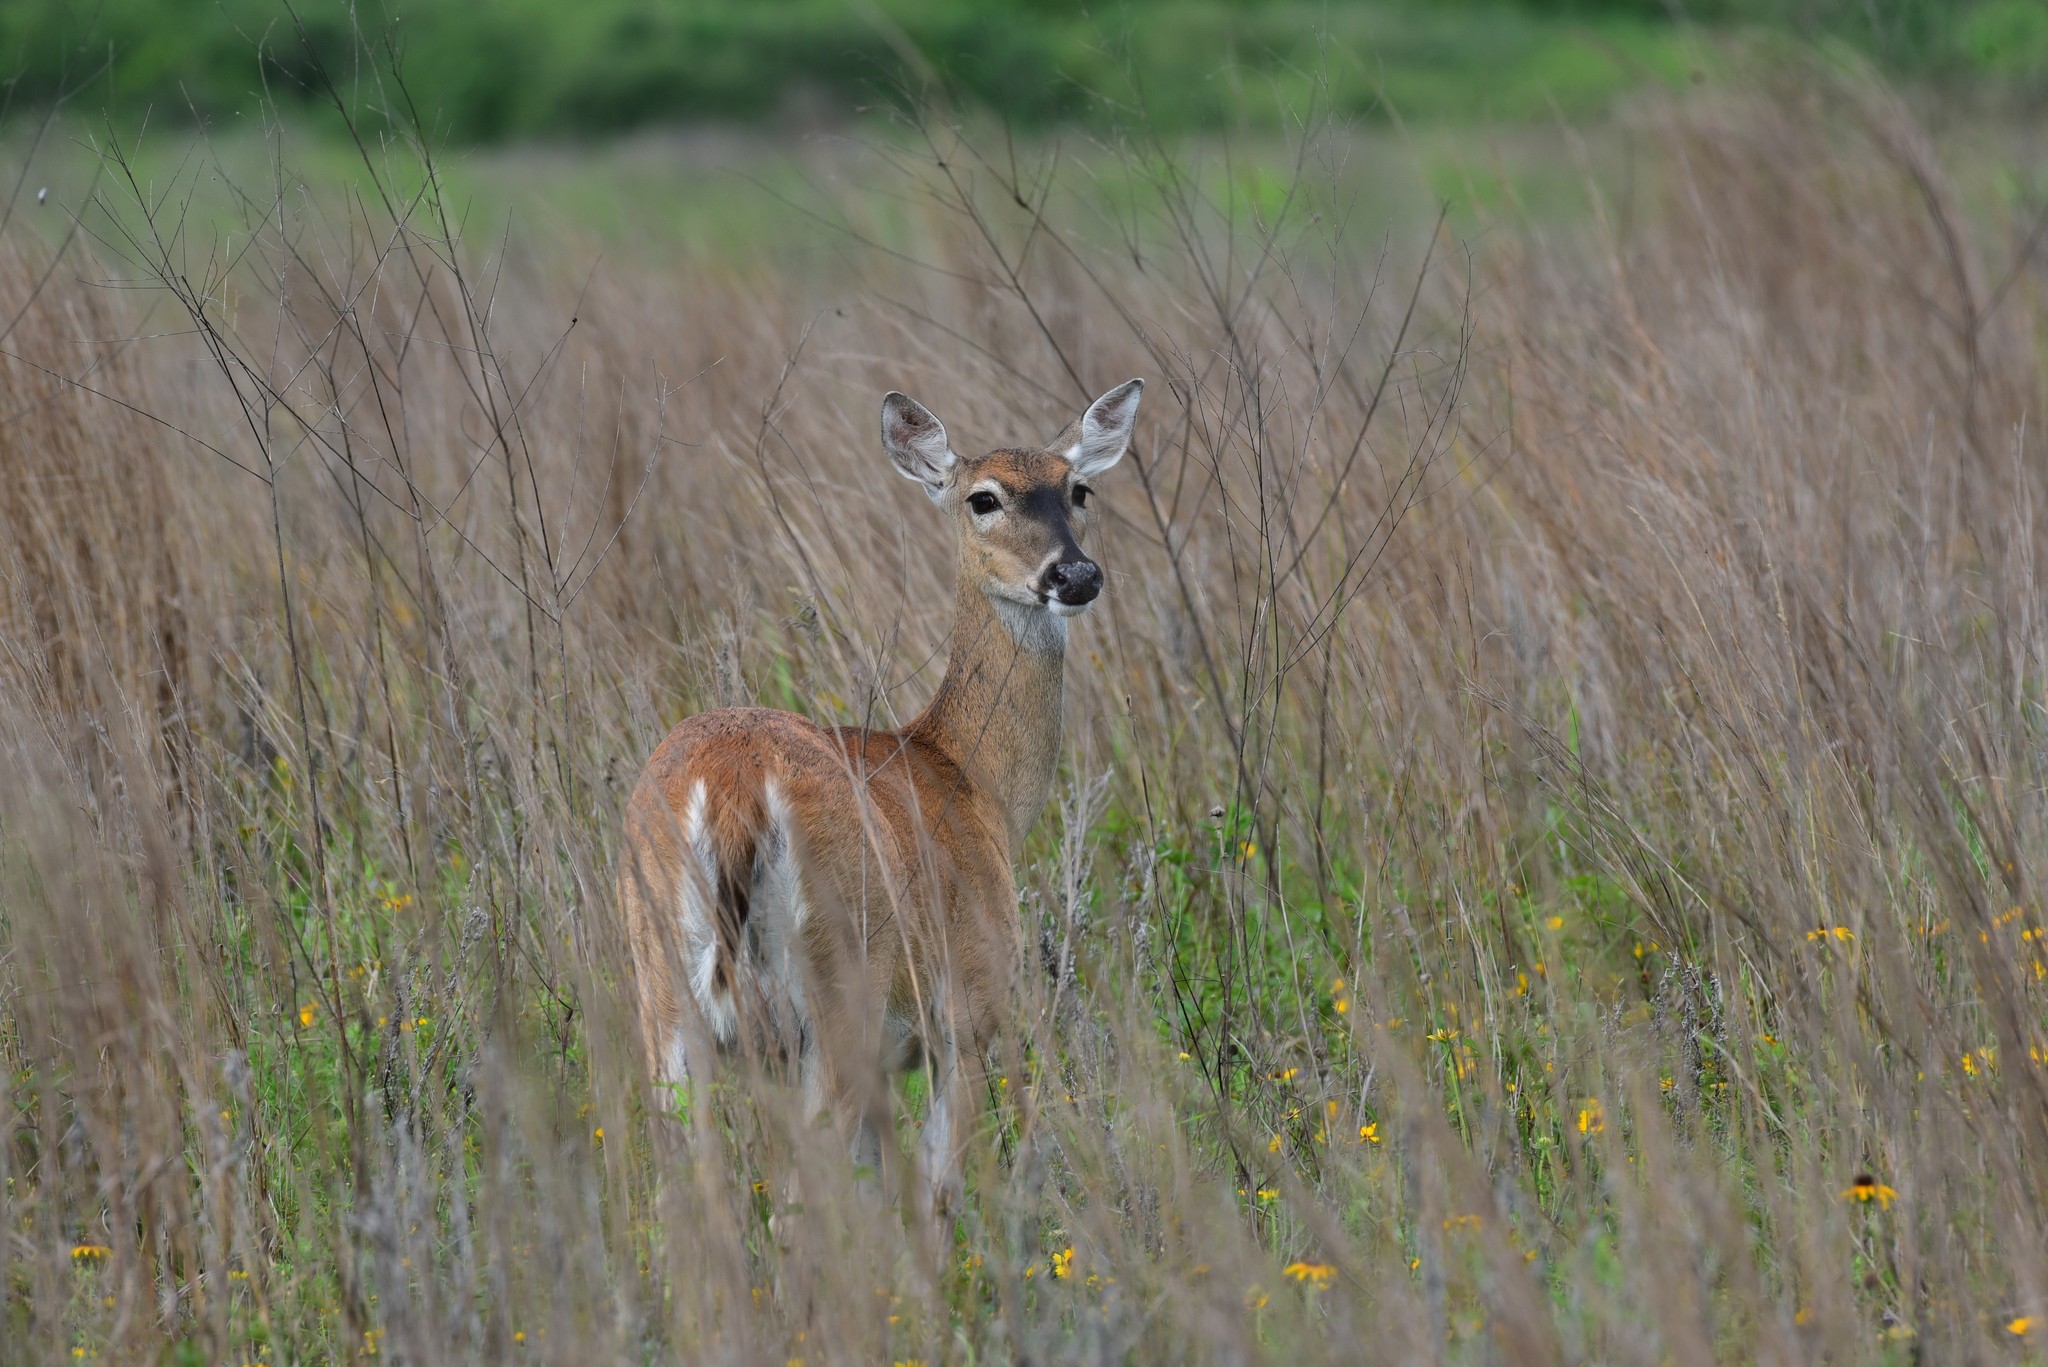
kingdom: Animalia
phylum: Chordata
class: Mammalia
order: Artiodactyla
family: Cervidae
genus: Odocoileus
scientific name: Odocoileus virginianus
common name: White-tailed deer
